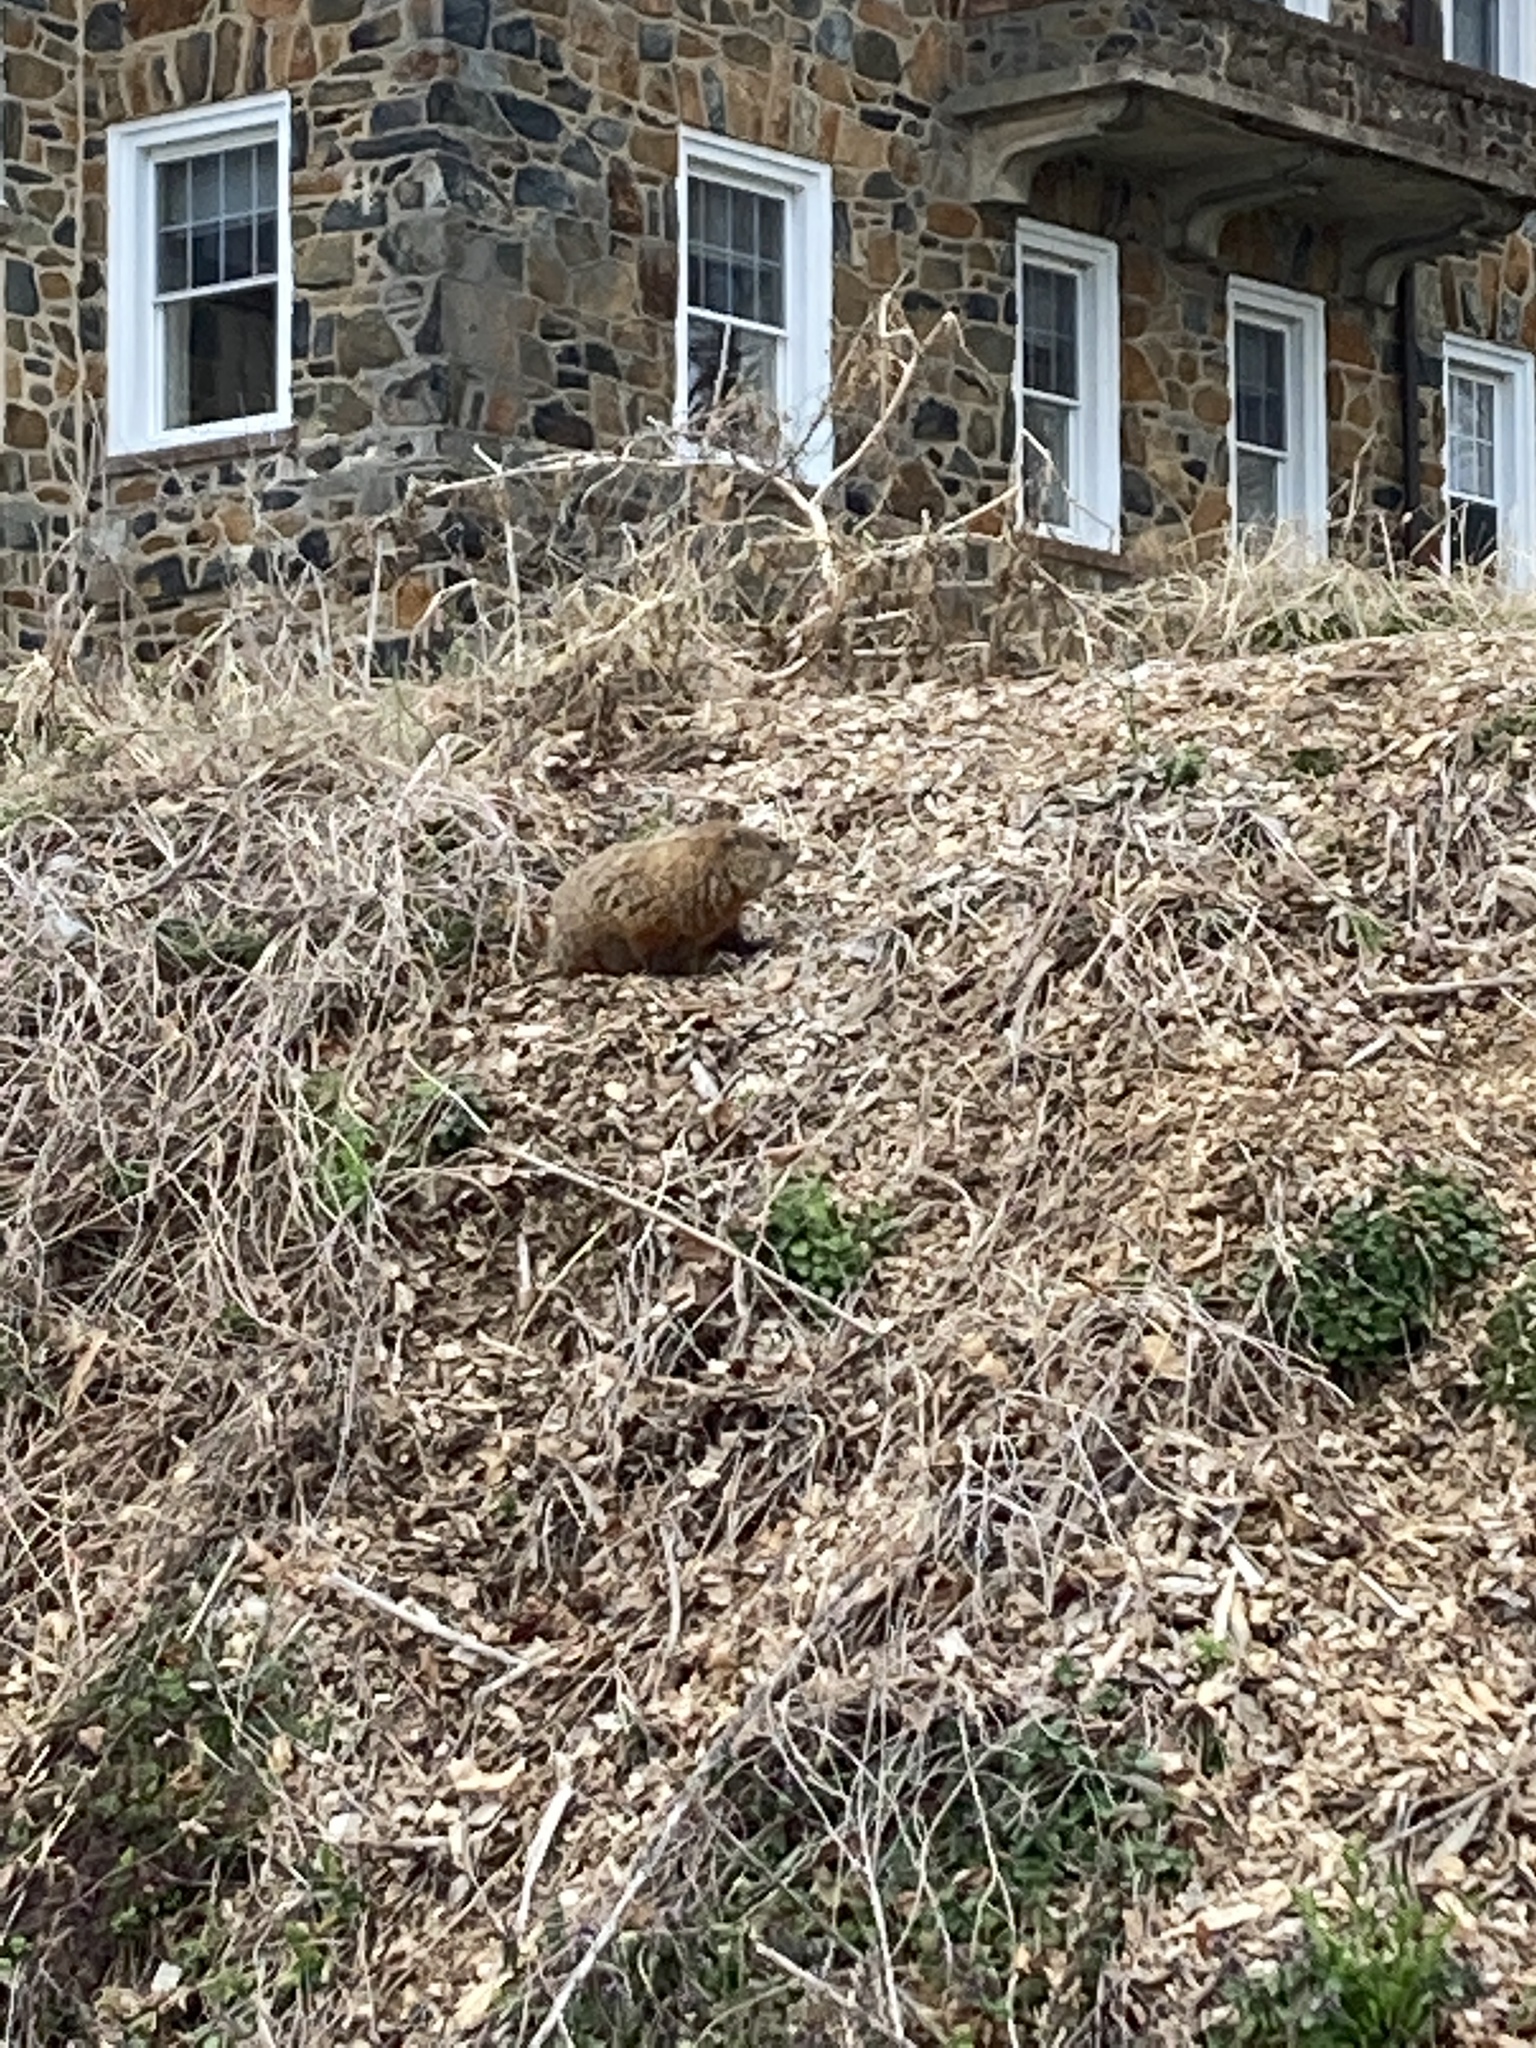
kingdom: Animalia
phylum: Chordata
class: Mammalia
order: Rodentia
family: Sciuridae
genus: Marmota
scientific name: Marmota monax
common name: Groundhog
